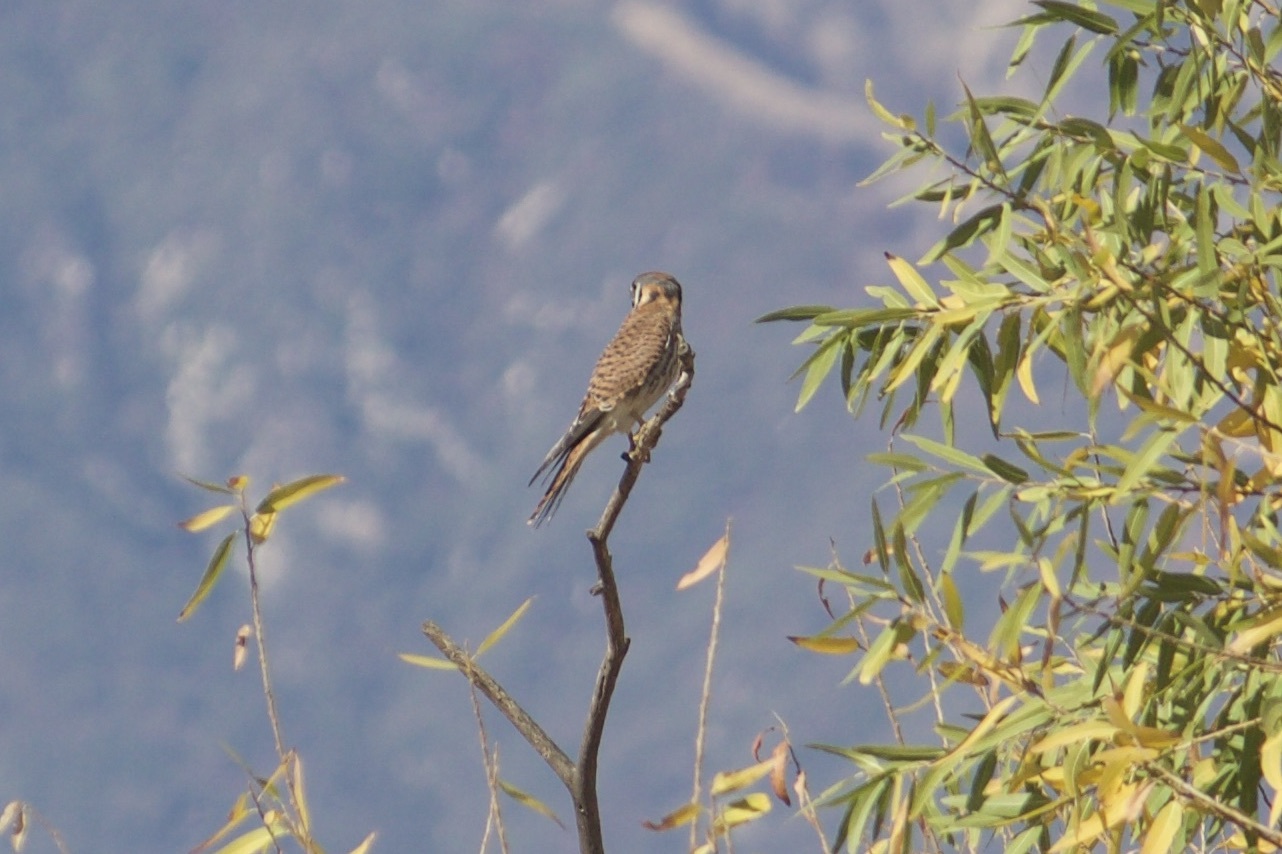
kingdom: Animalia
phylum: Chordata
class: Aves
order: Falconiformes
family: Falconidae
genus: Falco
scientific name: Falco sparverius
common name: American kestrel
